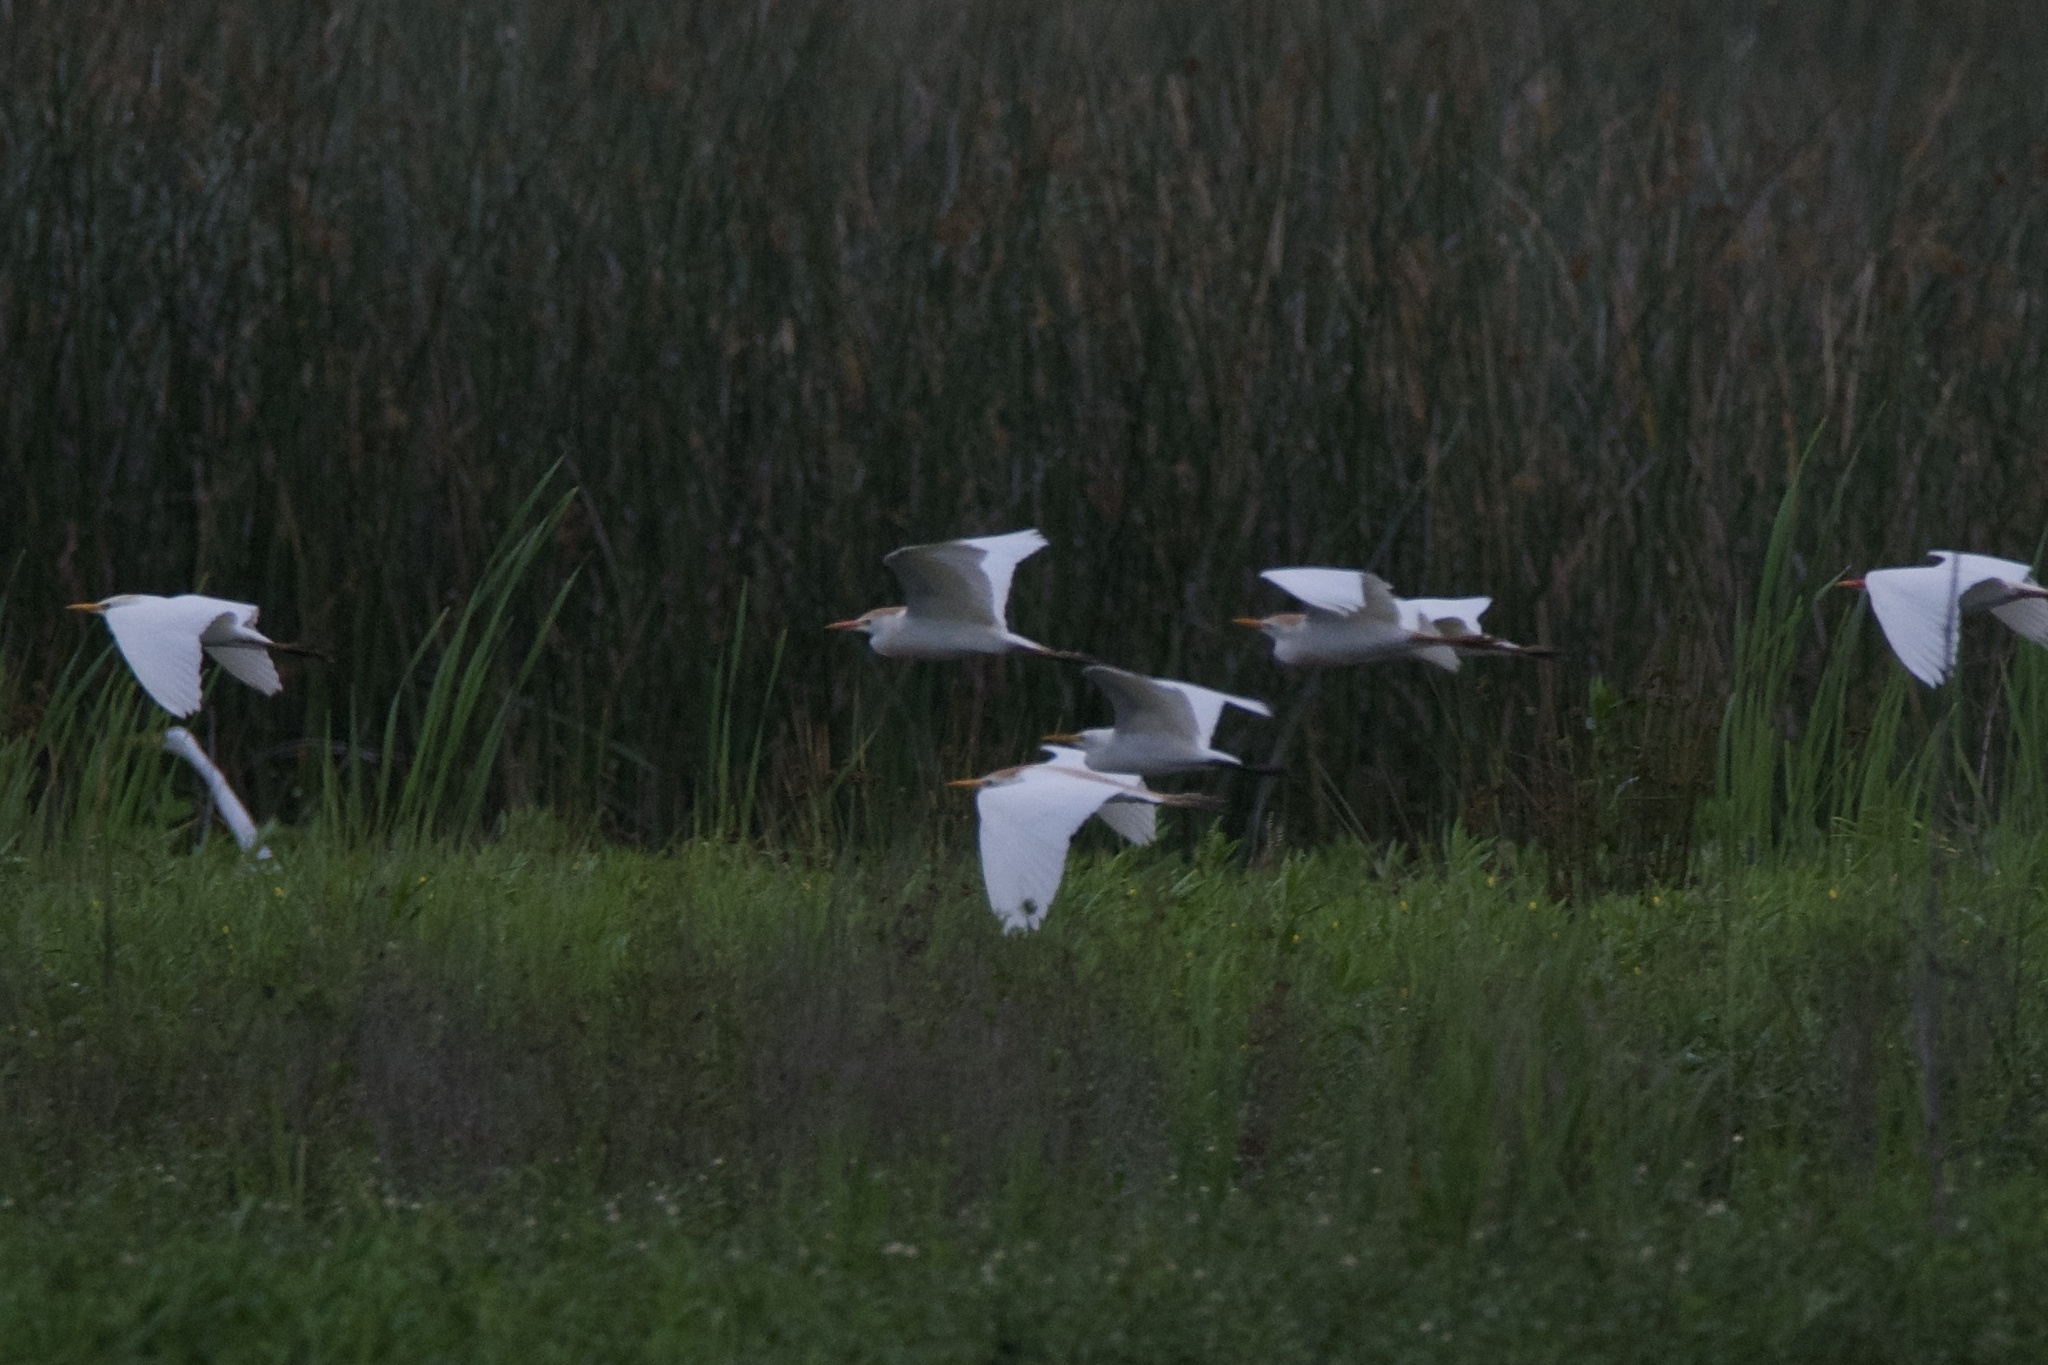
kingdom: Animalia
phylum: Chordata
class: Aves
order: Pelecaniformes
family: Ardeidae
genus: Bubulcus
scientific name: Bubulcus ibis
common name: Cattle egret
